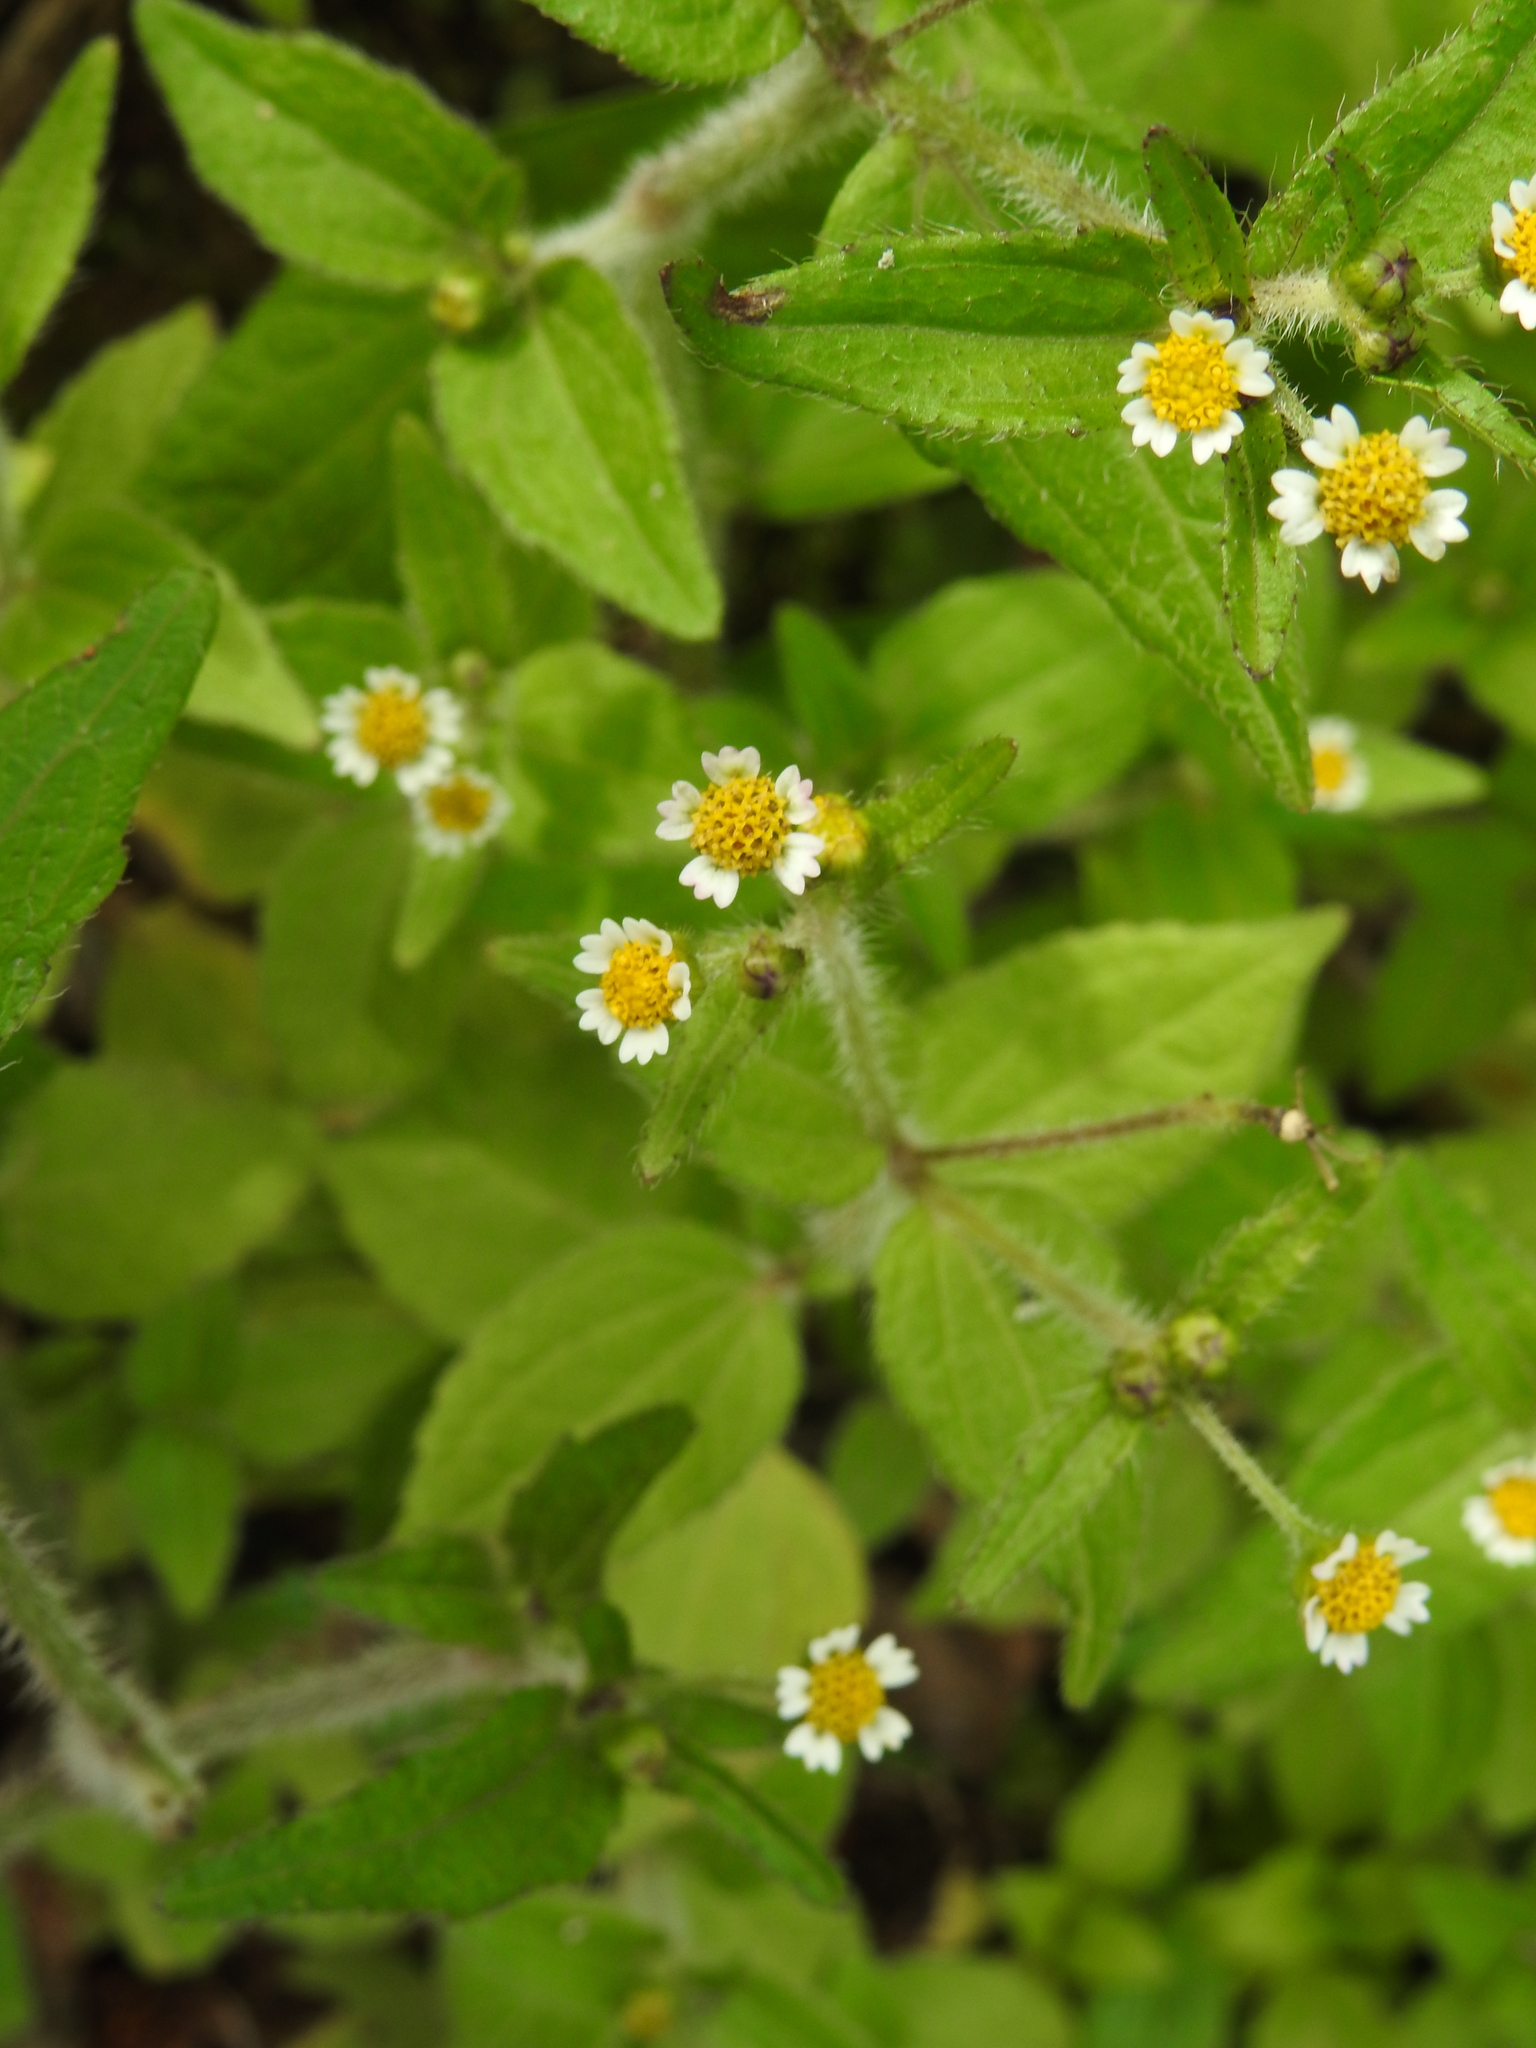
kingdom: Plantae
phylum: Tracheophyta
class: Magnoliopsida
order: Asterales
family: Asteraceae
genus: Galinsoga
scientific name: Galinsoga quadriradiata
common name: Shaggy soldier
